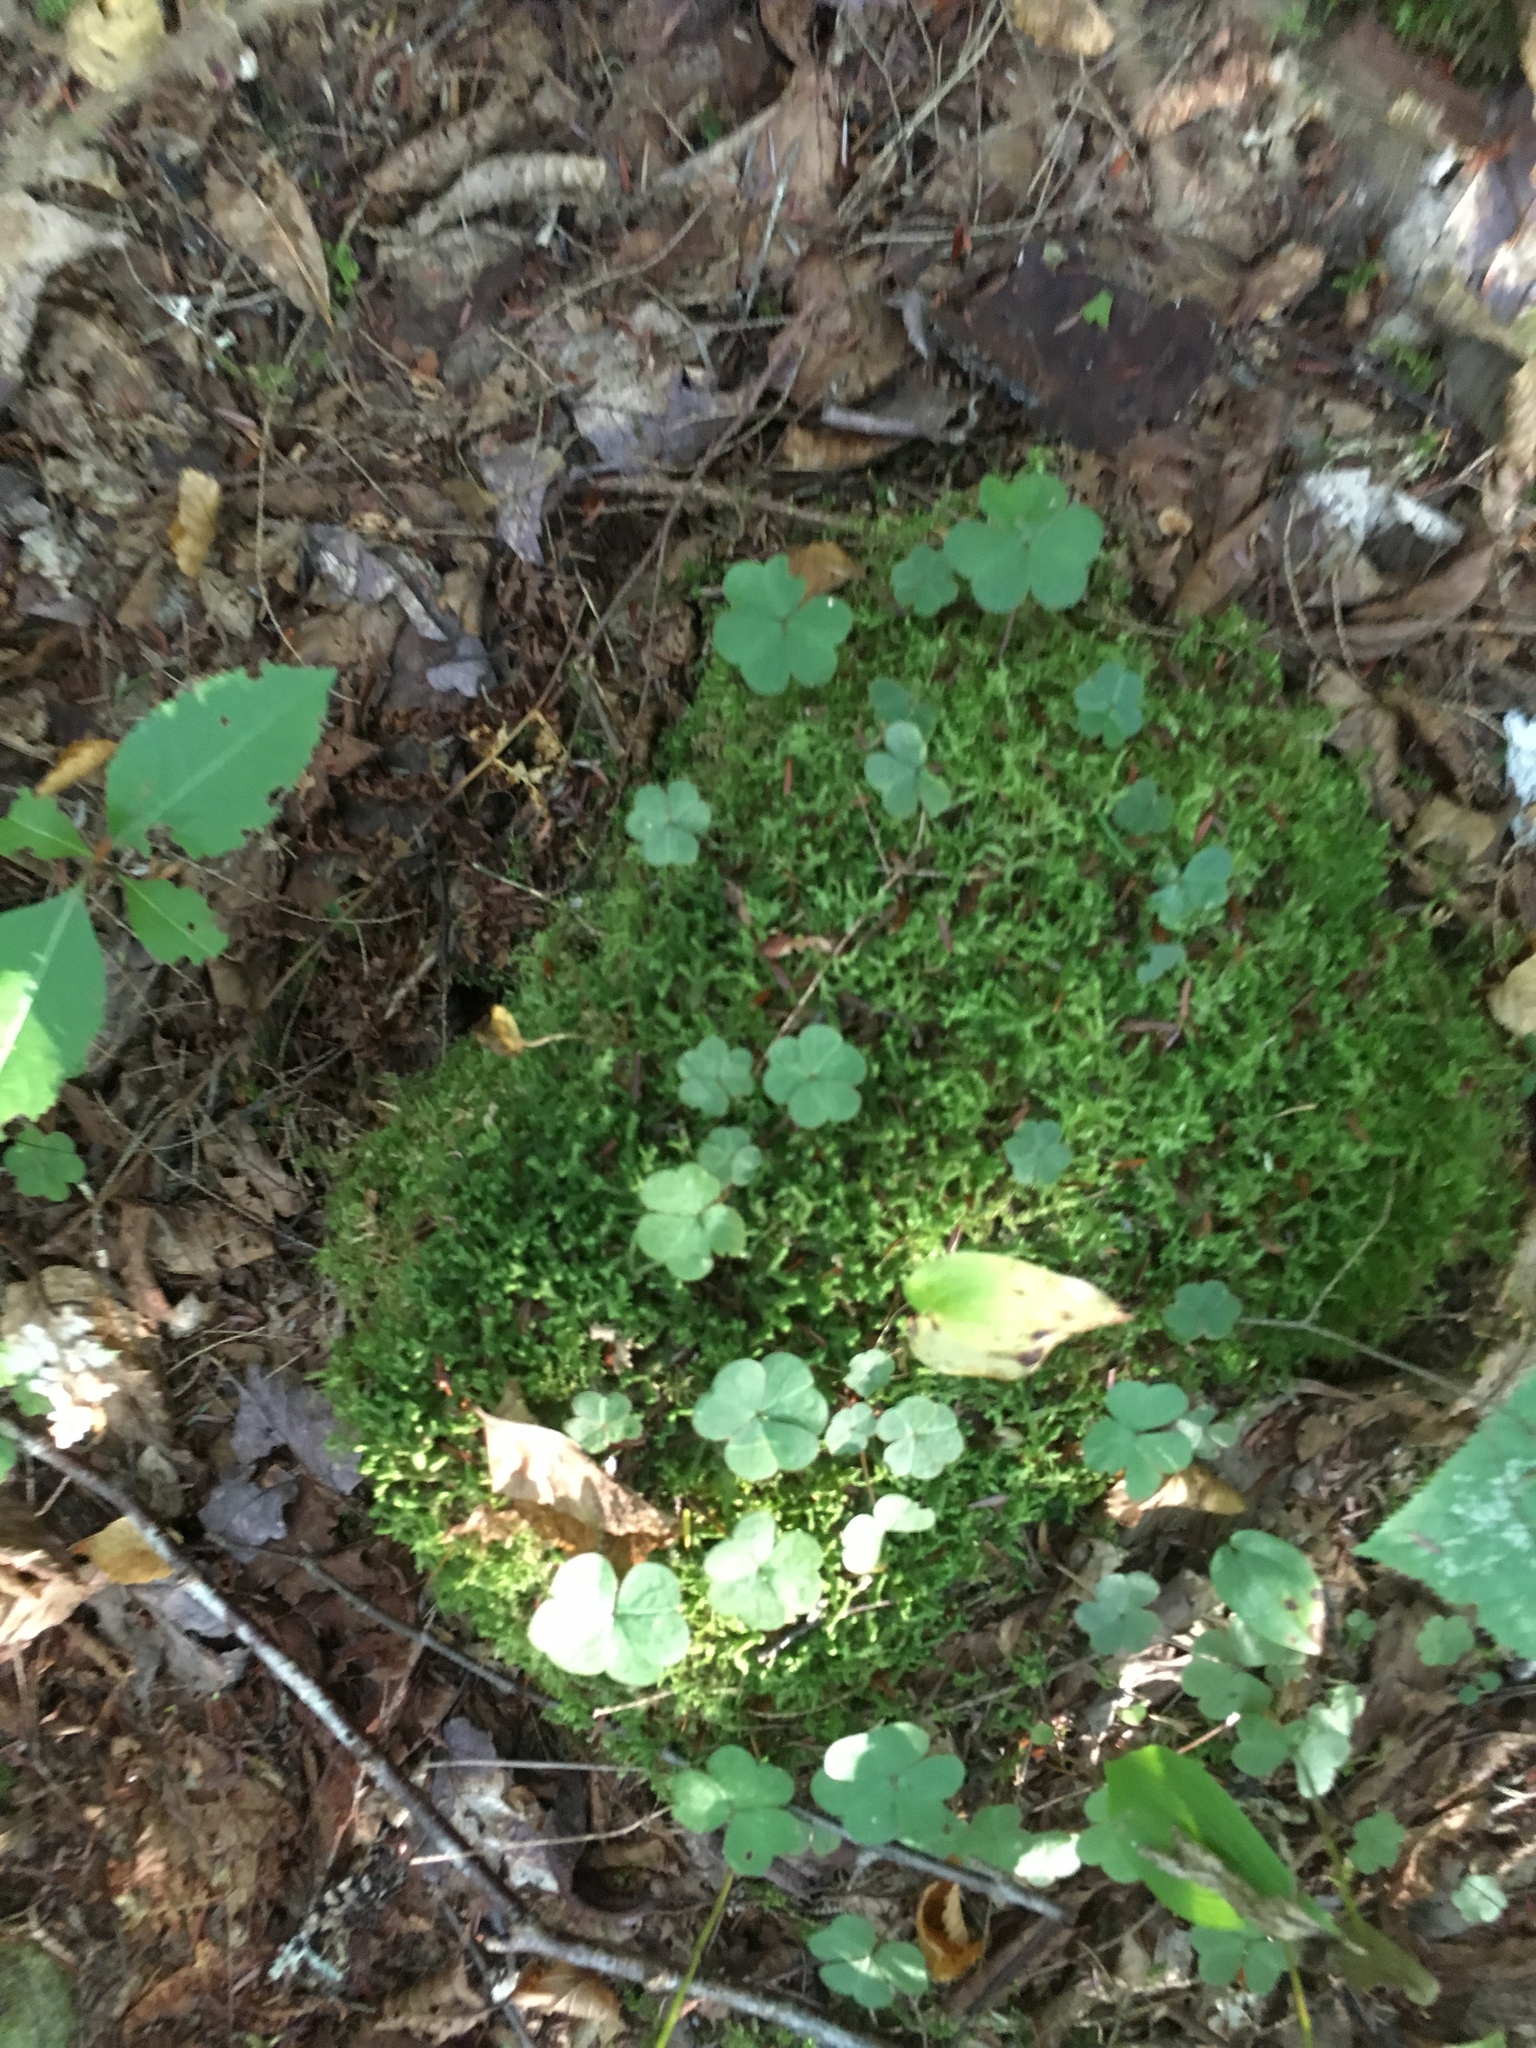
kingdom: Plantae
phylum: Tracheophyta
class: Magnoliopsida
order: Oxalidales
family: Oxalidaceae
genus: Oxalis
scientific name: Oxalis montana
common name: American wood-sorrel
